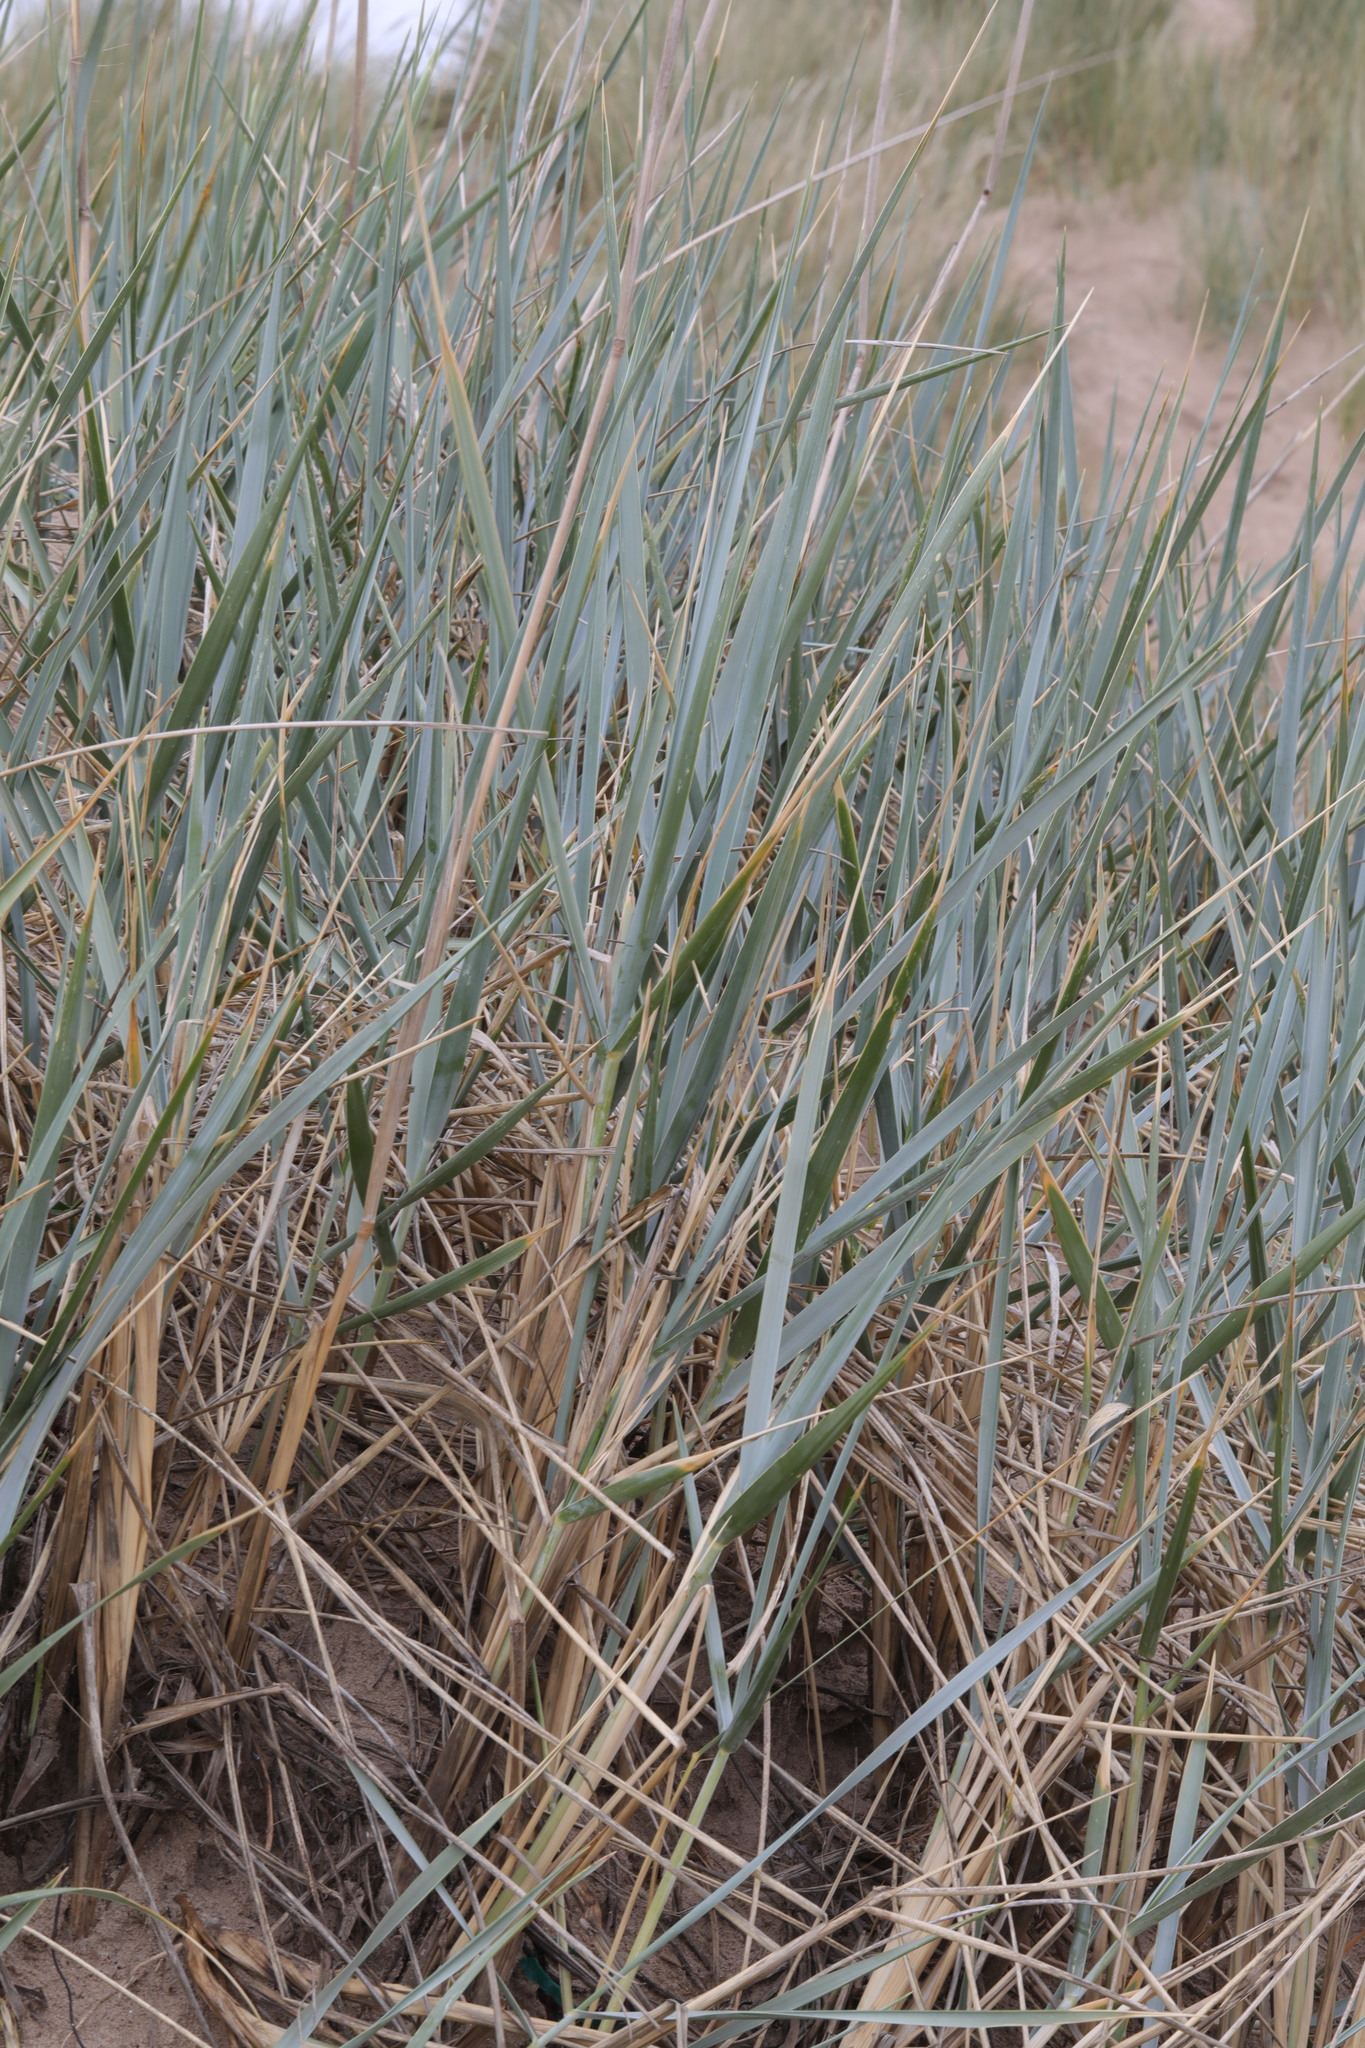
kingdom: Plantae
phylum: Tracheophyta
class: Liliopsida
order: Poales
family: Poaceae
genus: Leymus
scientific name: Leymus arenarius
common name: Lyme-grass
